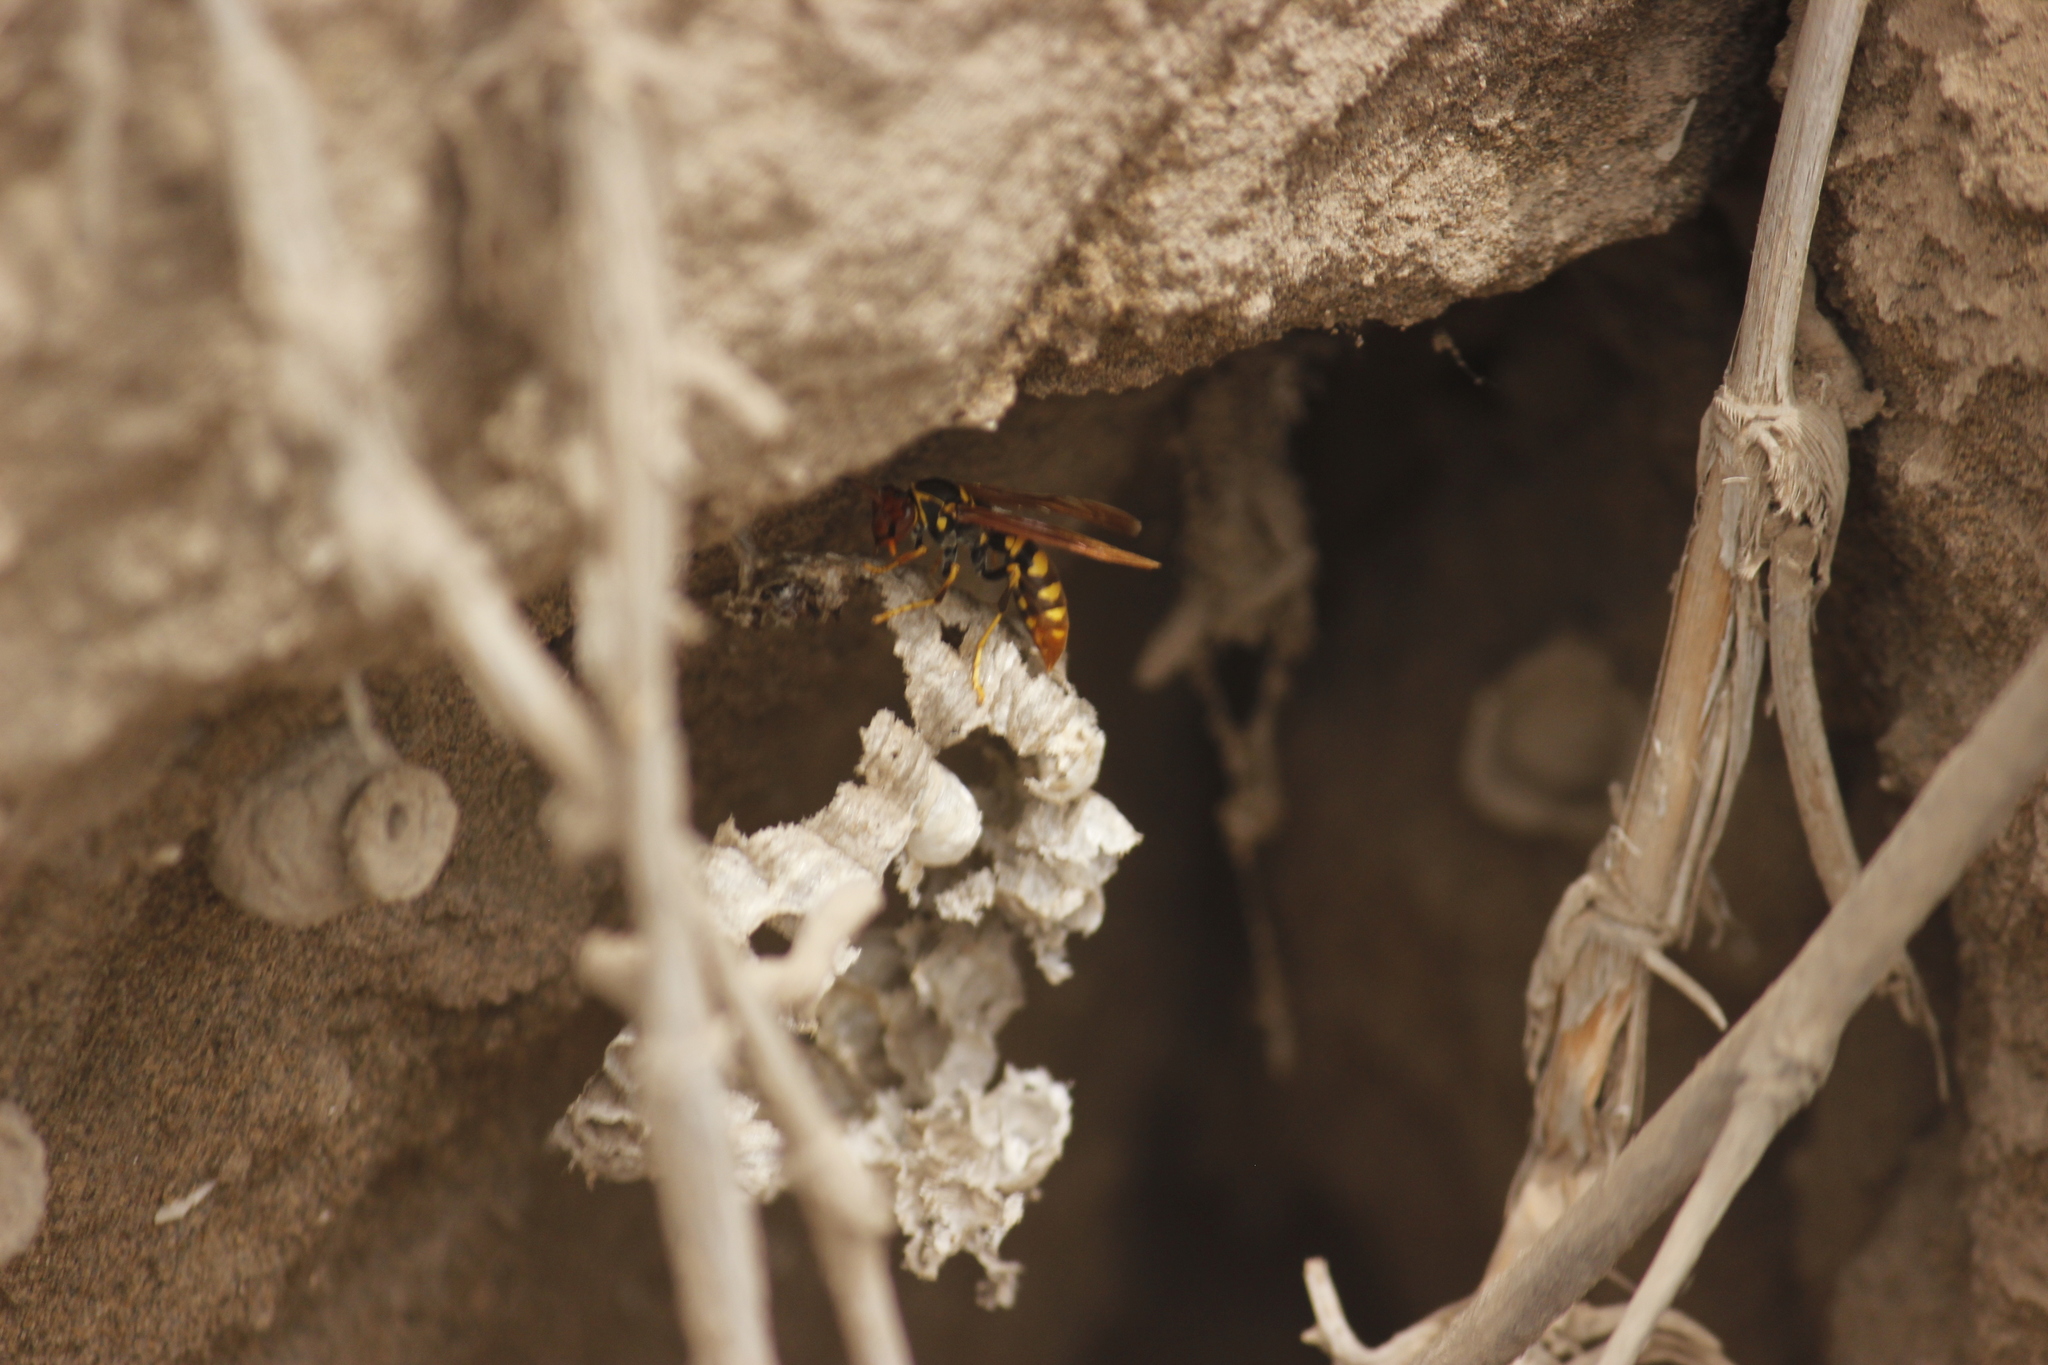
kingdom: Animalia
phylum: Arthropoda
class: Insecta
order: Hymenoptera
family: Eumenidae
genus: Polistes
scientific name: Polistes weyrauchorum
